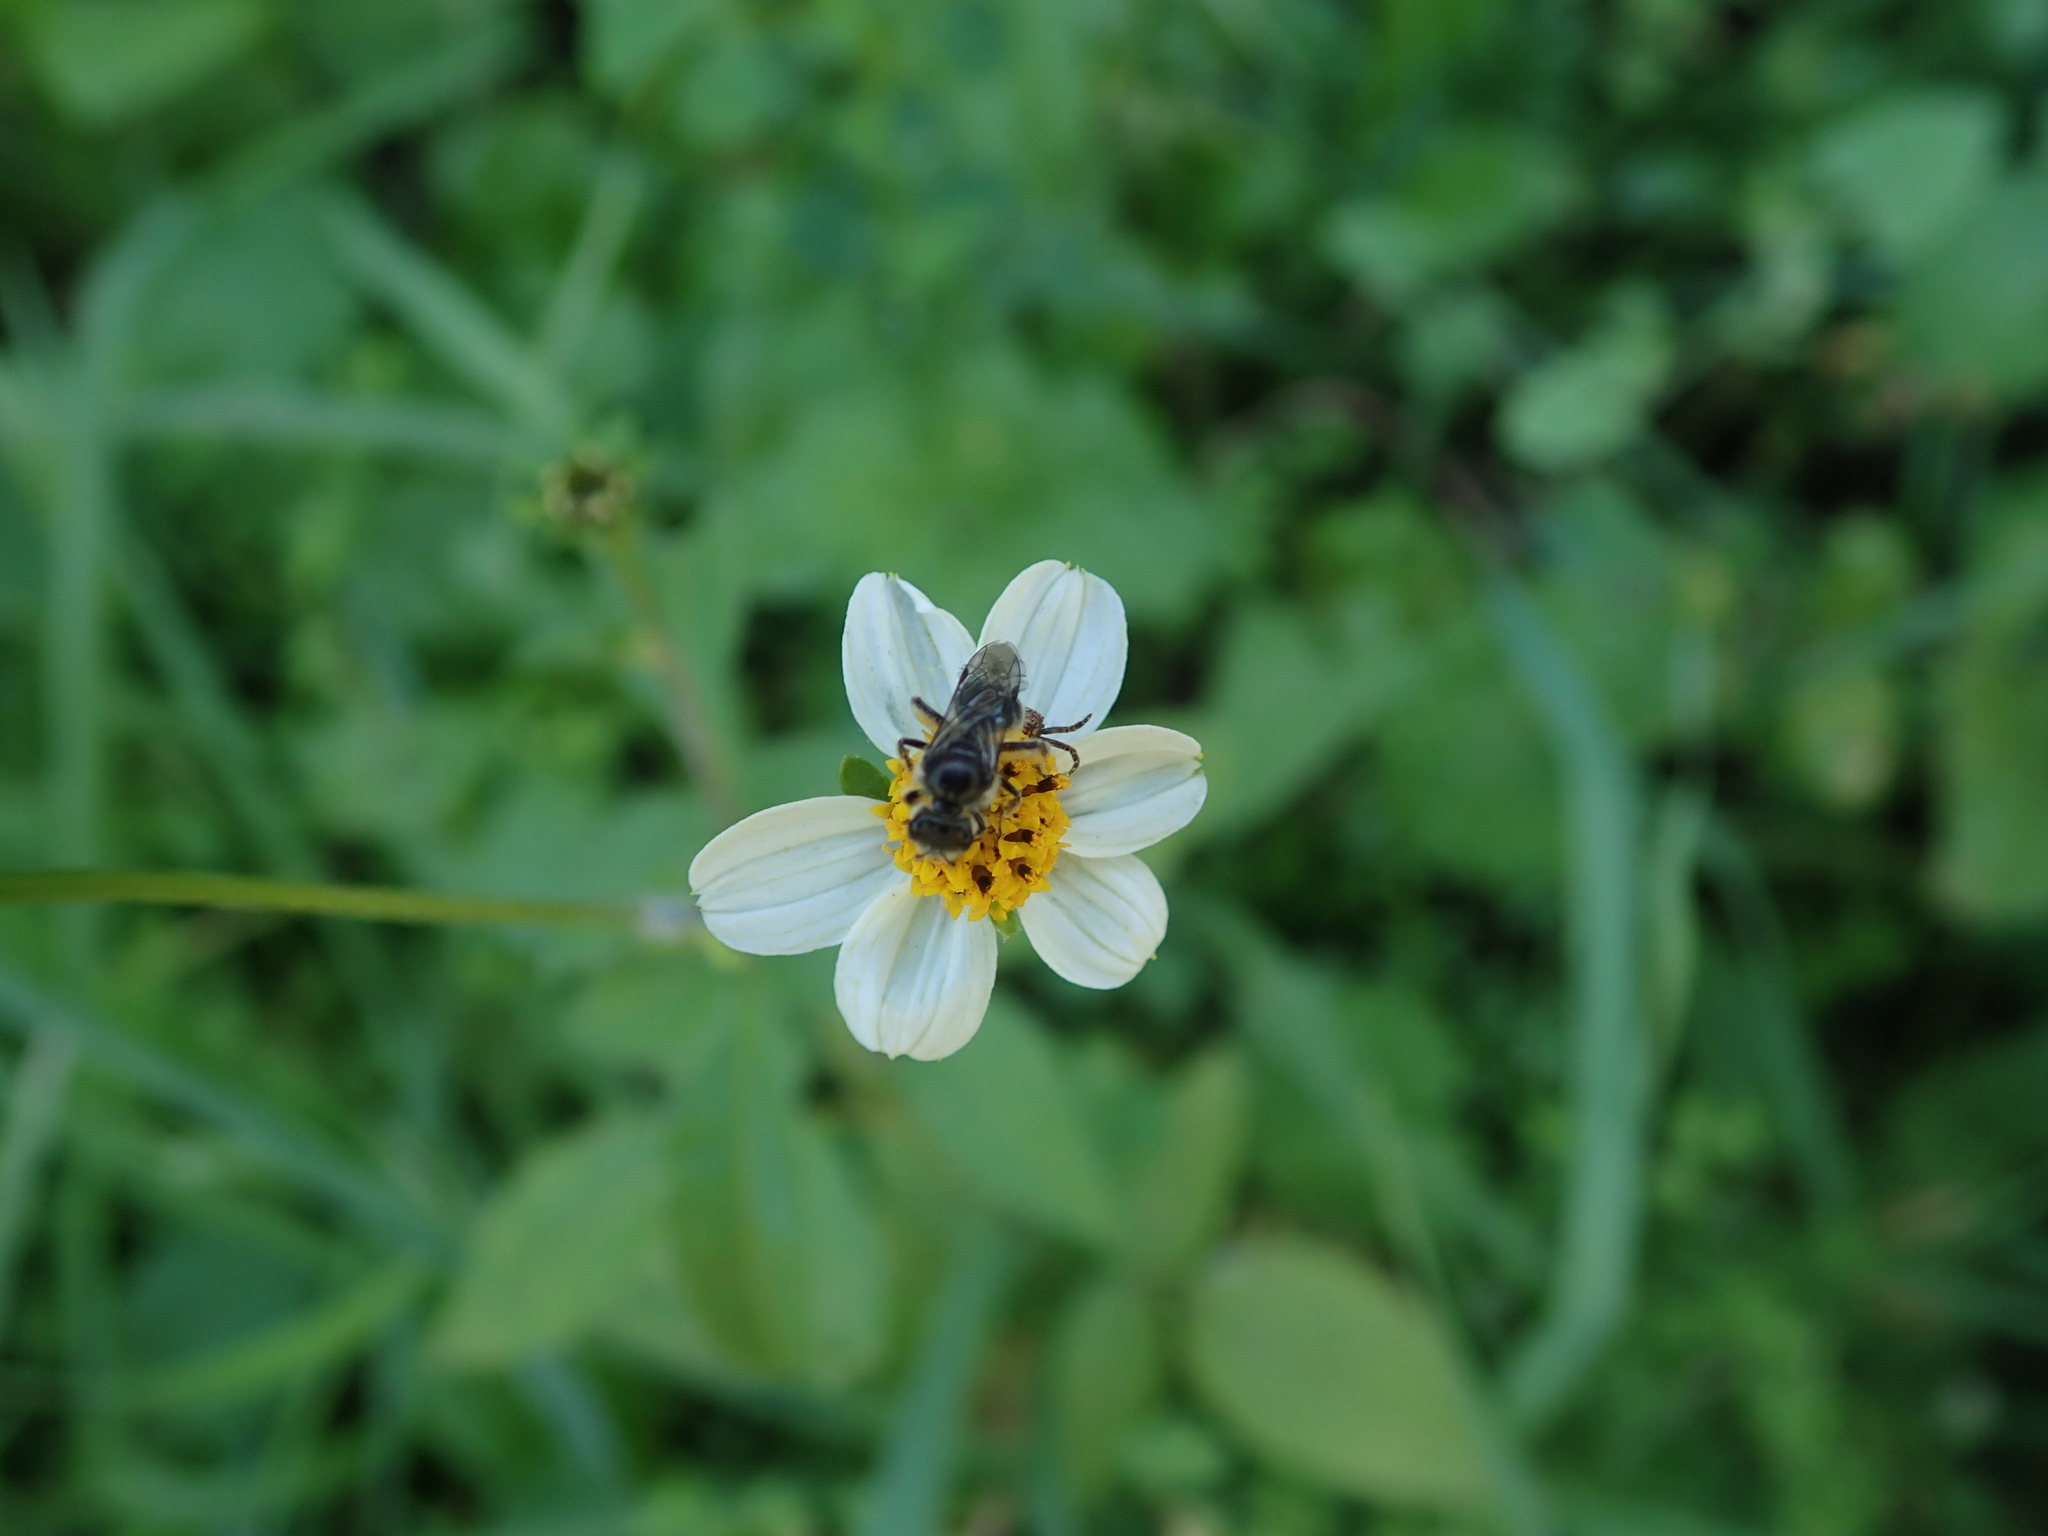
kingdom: Animalia
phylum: Arthropoda
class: Insecta
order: Hymenoptera
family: Halictidae
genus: Lasioglossum
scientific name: Lasioglossum viride
